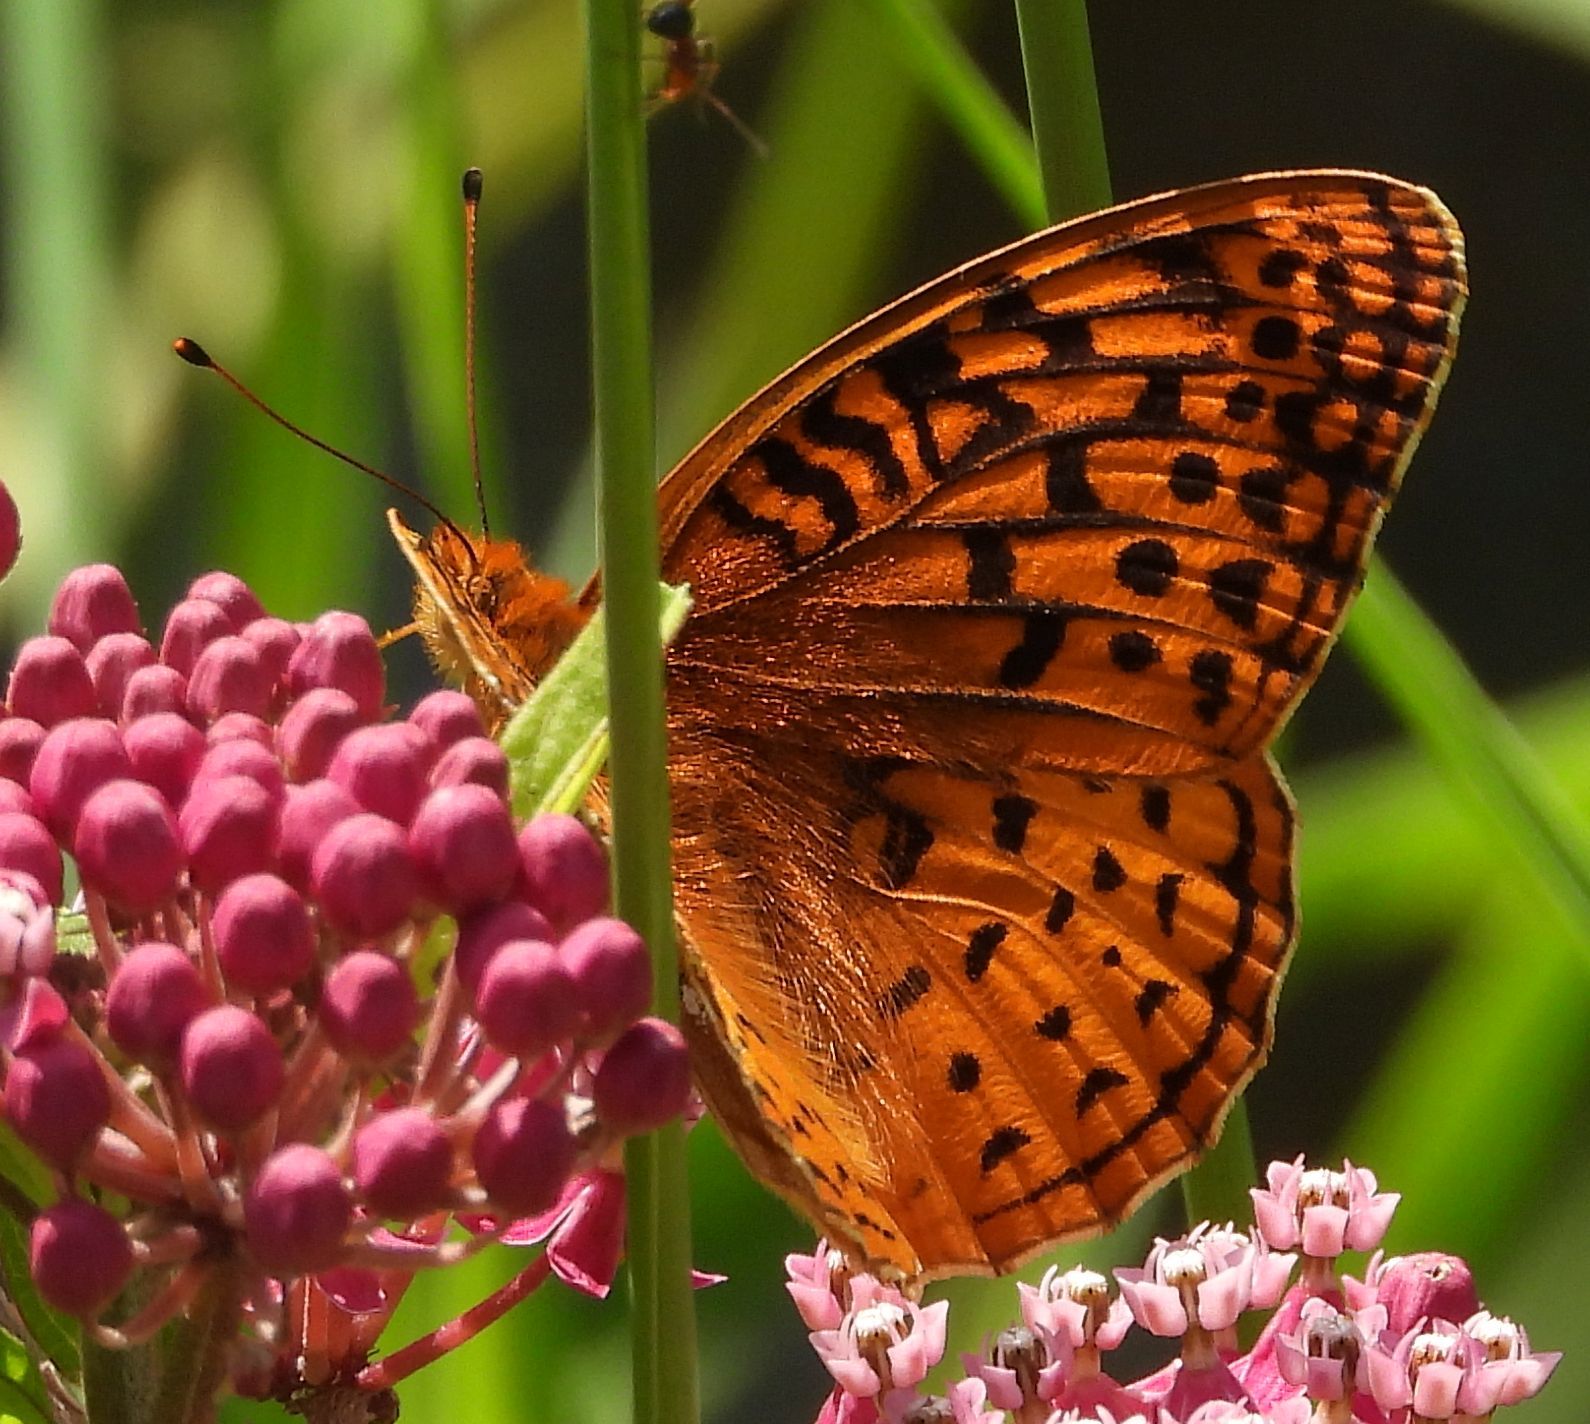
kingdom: Animalia
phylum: Arthropoda
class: Insecta
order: Lepidoptera
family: Nymphalidae
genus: Speyeria
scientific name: Speyeria cybele
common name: Great spangled fritillary
